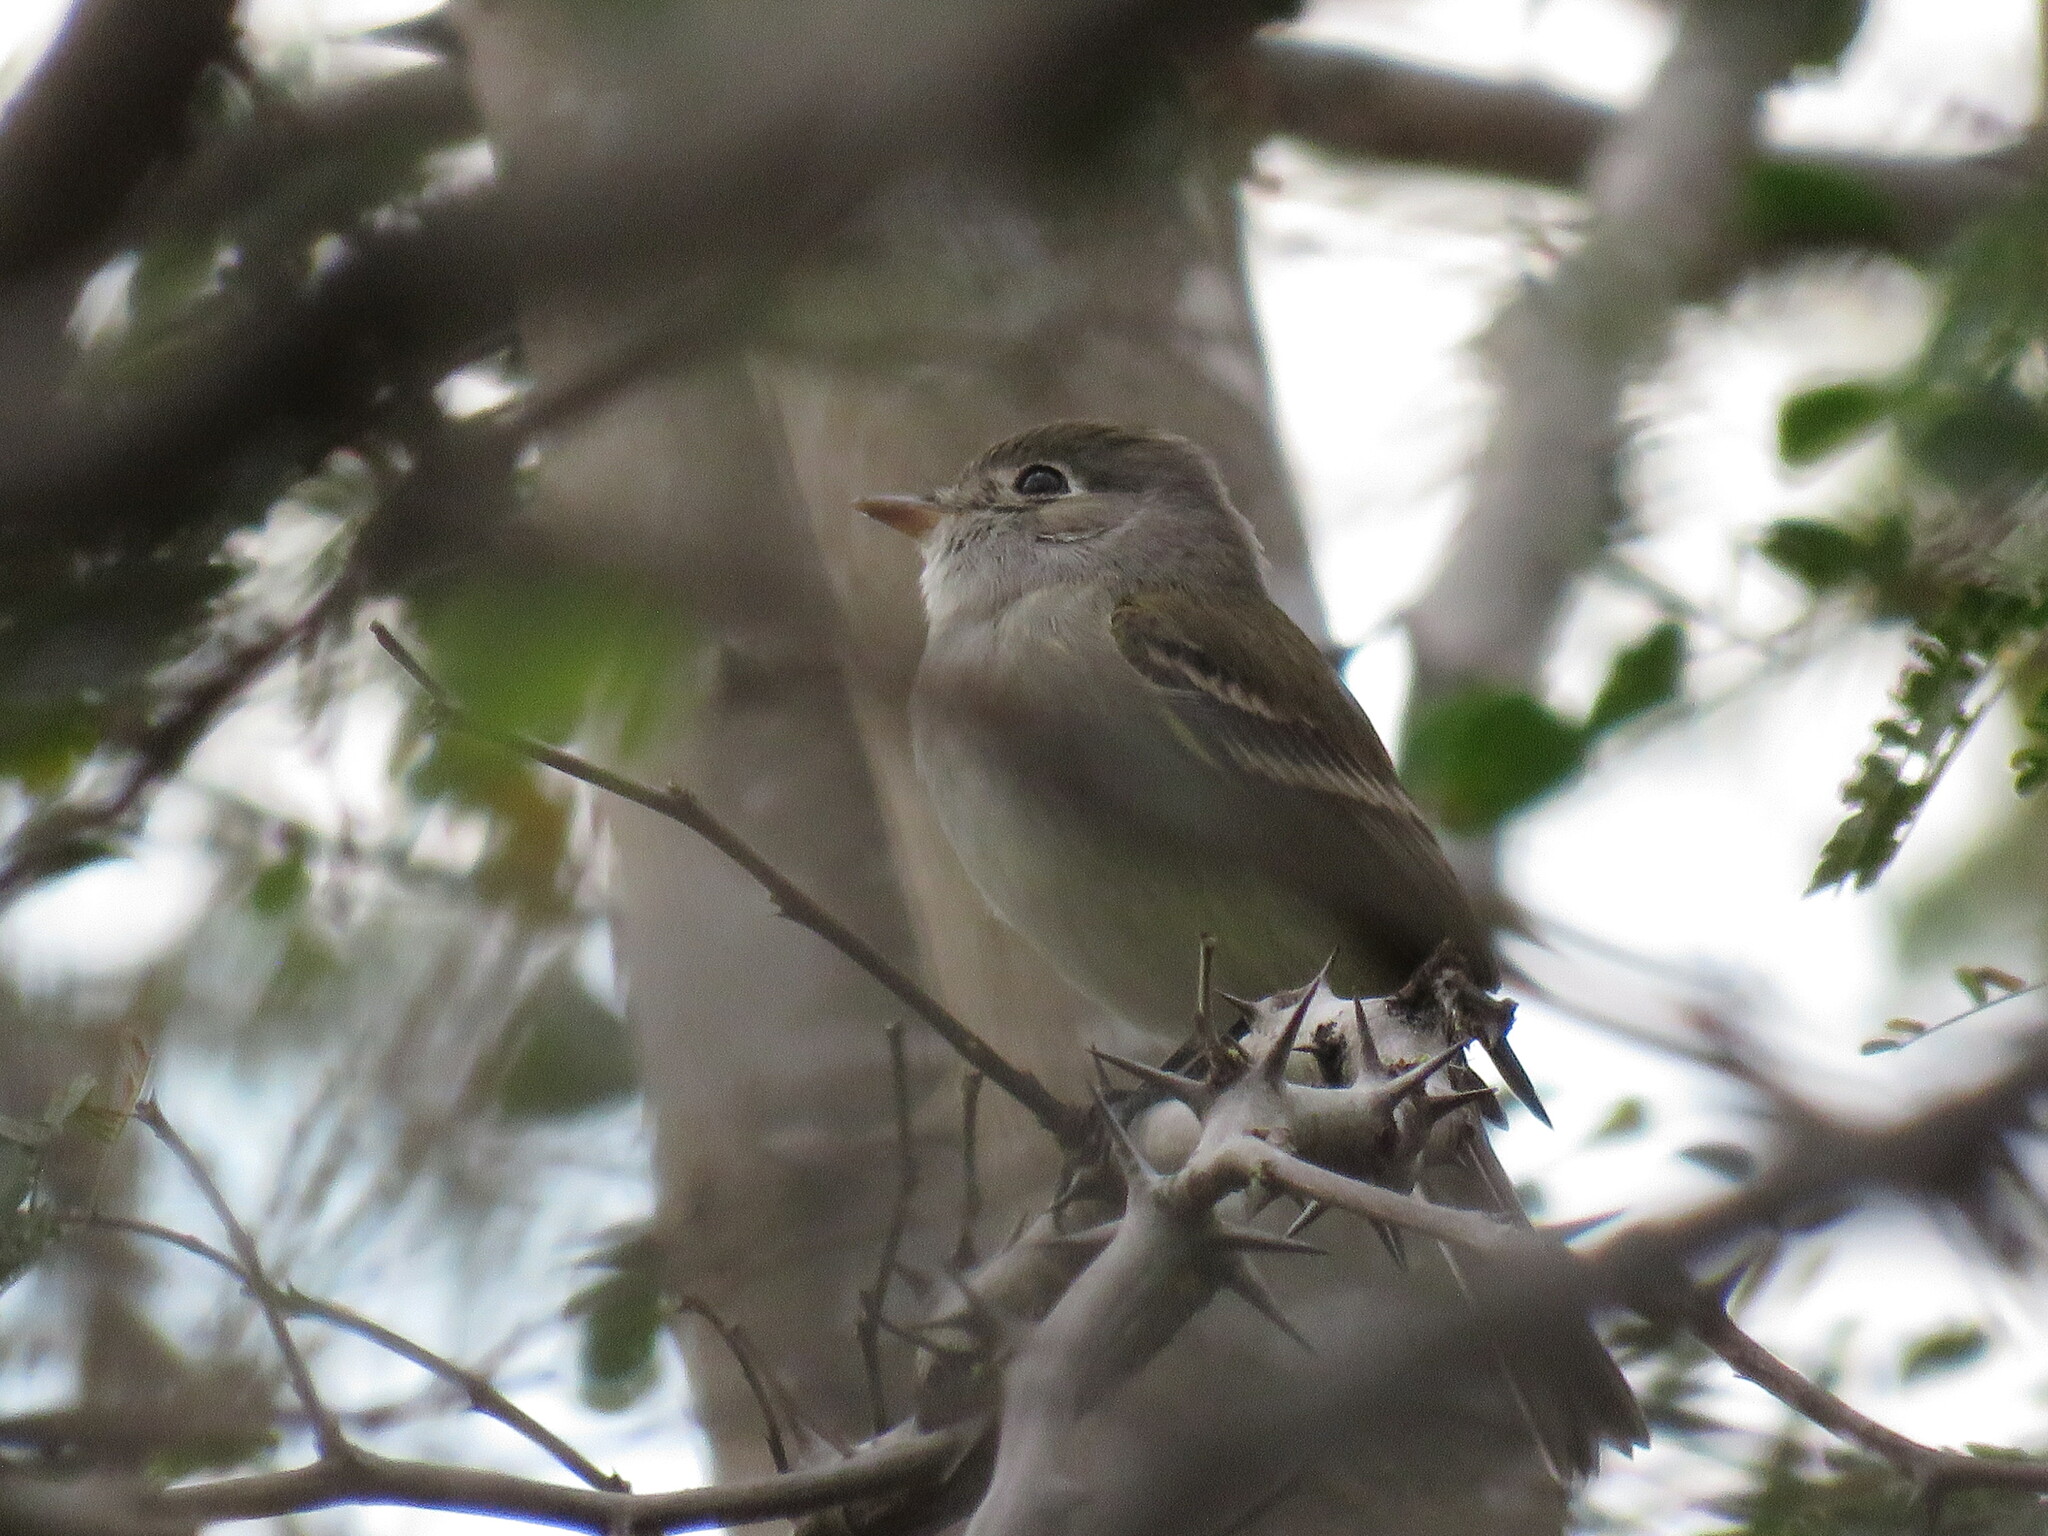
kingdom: Animalia
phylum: Chordata
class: Aves
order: Passeriformes
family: Tyrannidae
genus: Empidonax
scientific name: Empidonax minimus
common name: Least flycatcher
